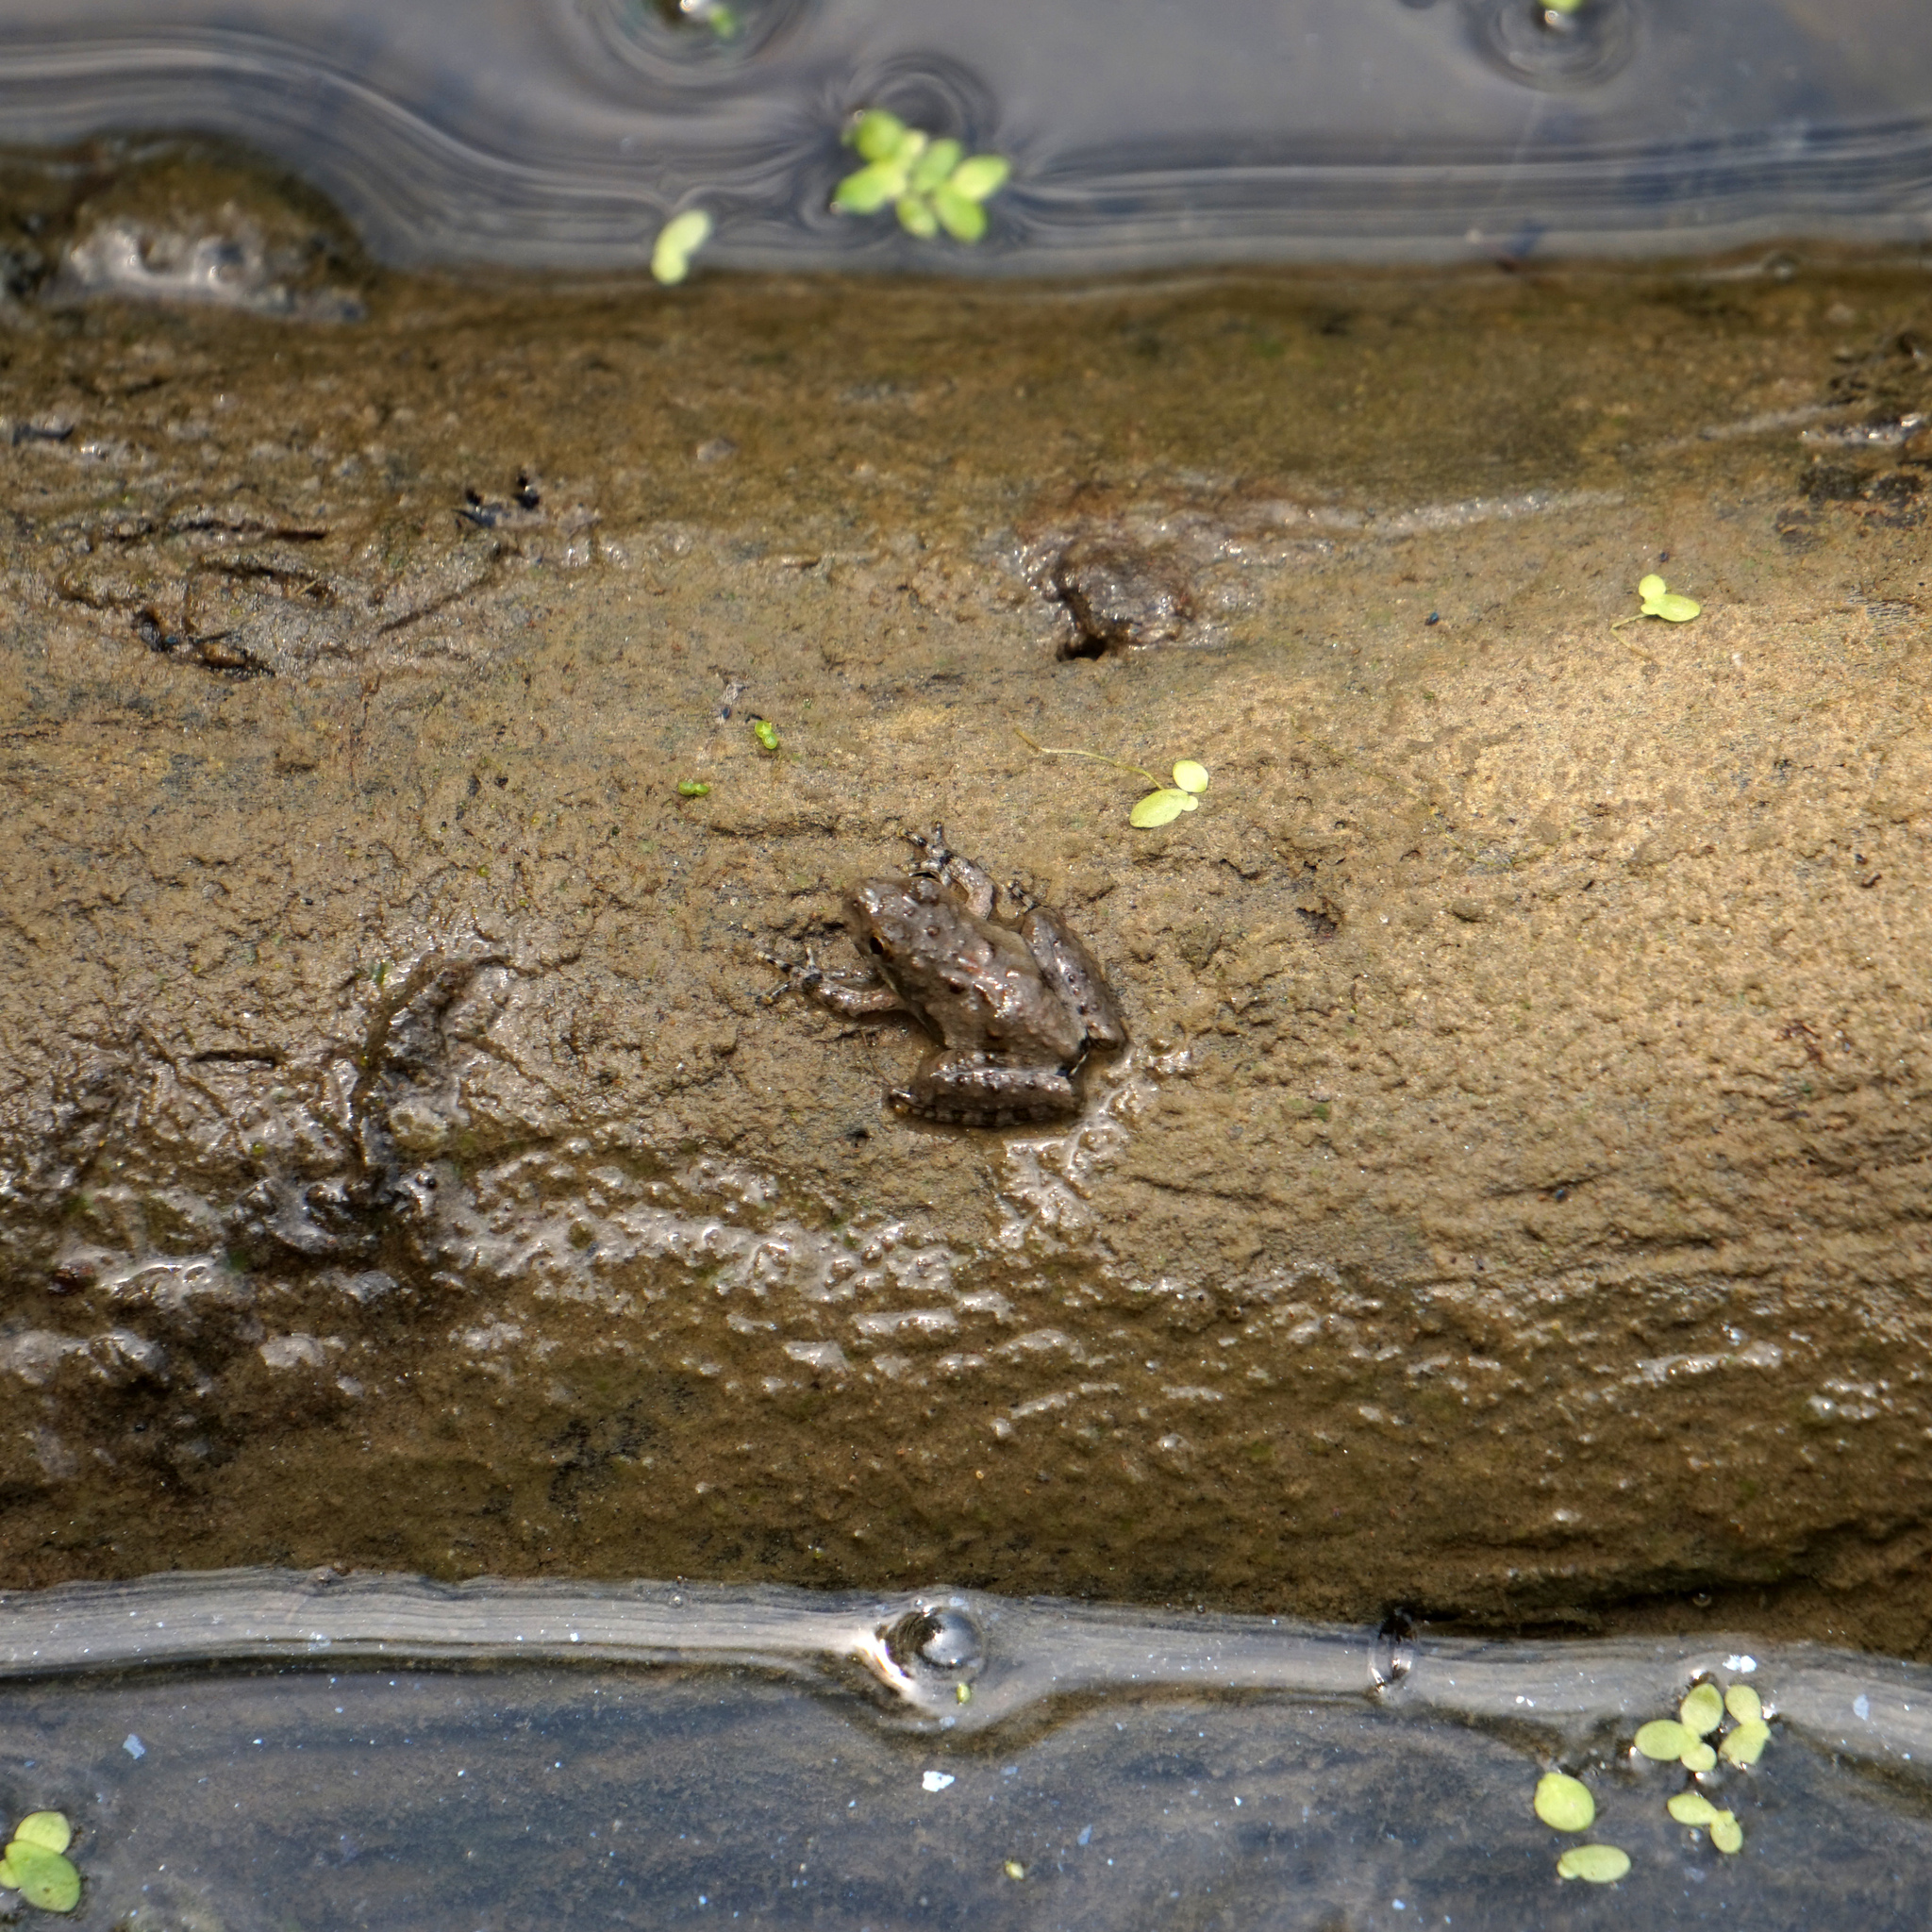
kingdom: Animalia
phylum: Chordata
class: Amphibia
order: Anura
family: Hylidae
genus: Acris
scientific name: Acris crepitans
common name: Northern cricket frog
